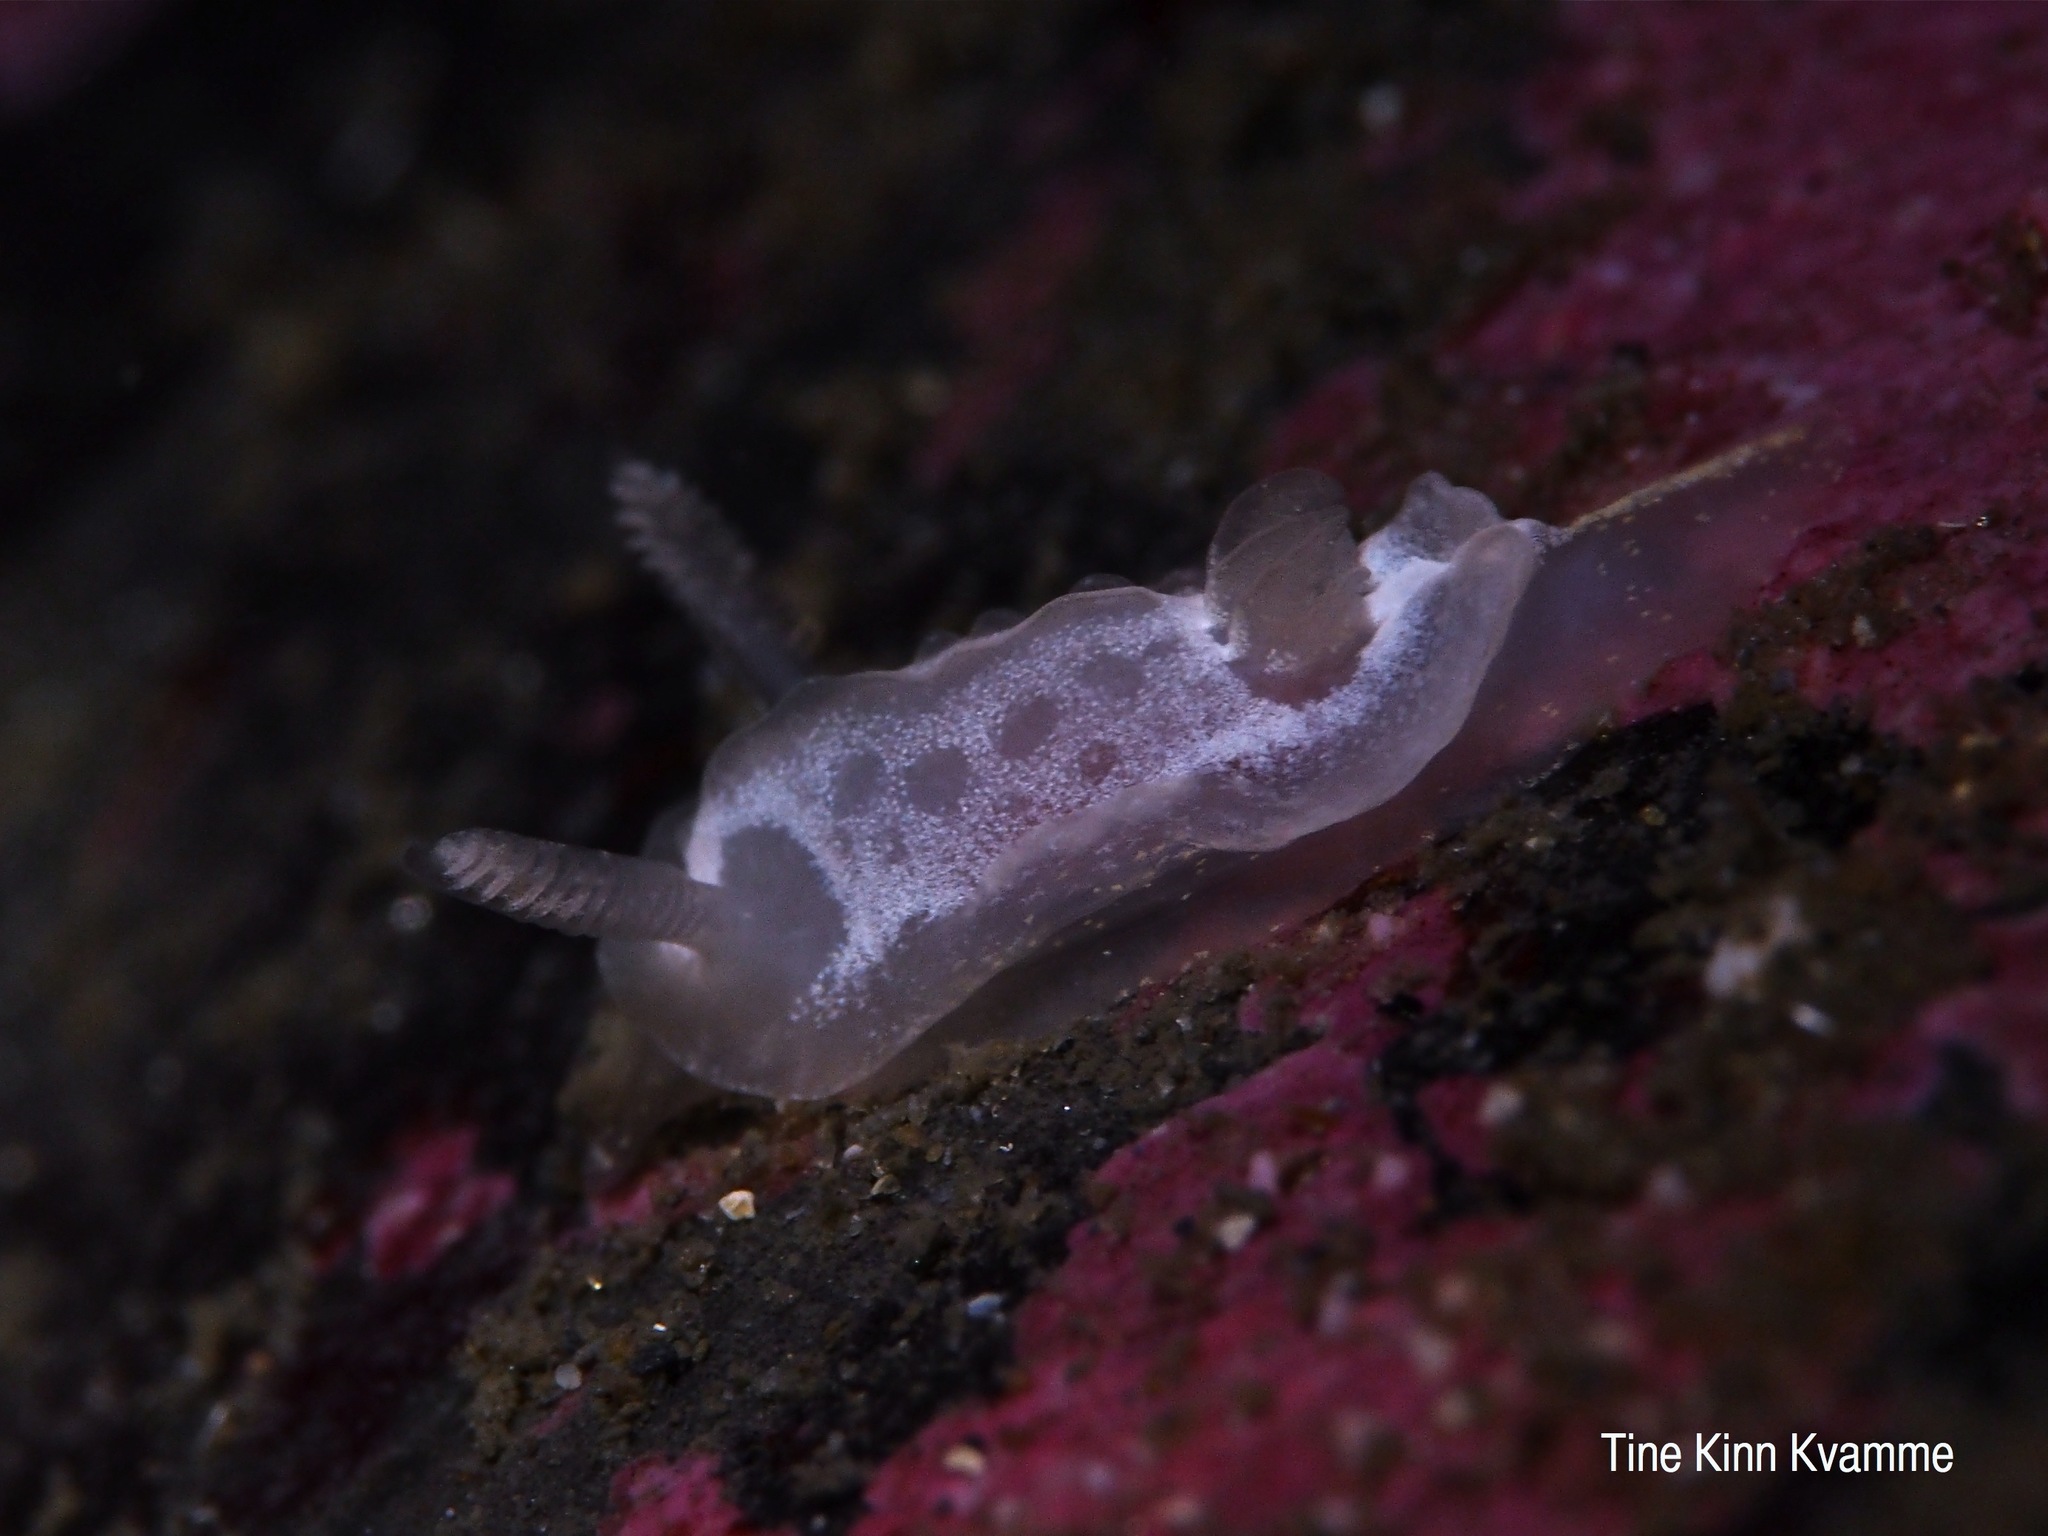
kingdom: Animalia
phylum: Mollusca
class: Gastropoda
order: Nudibranchia
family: Goniodorididae
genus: Okenia
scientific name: Okenia
